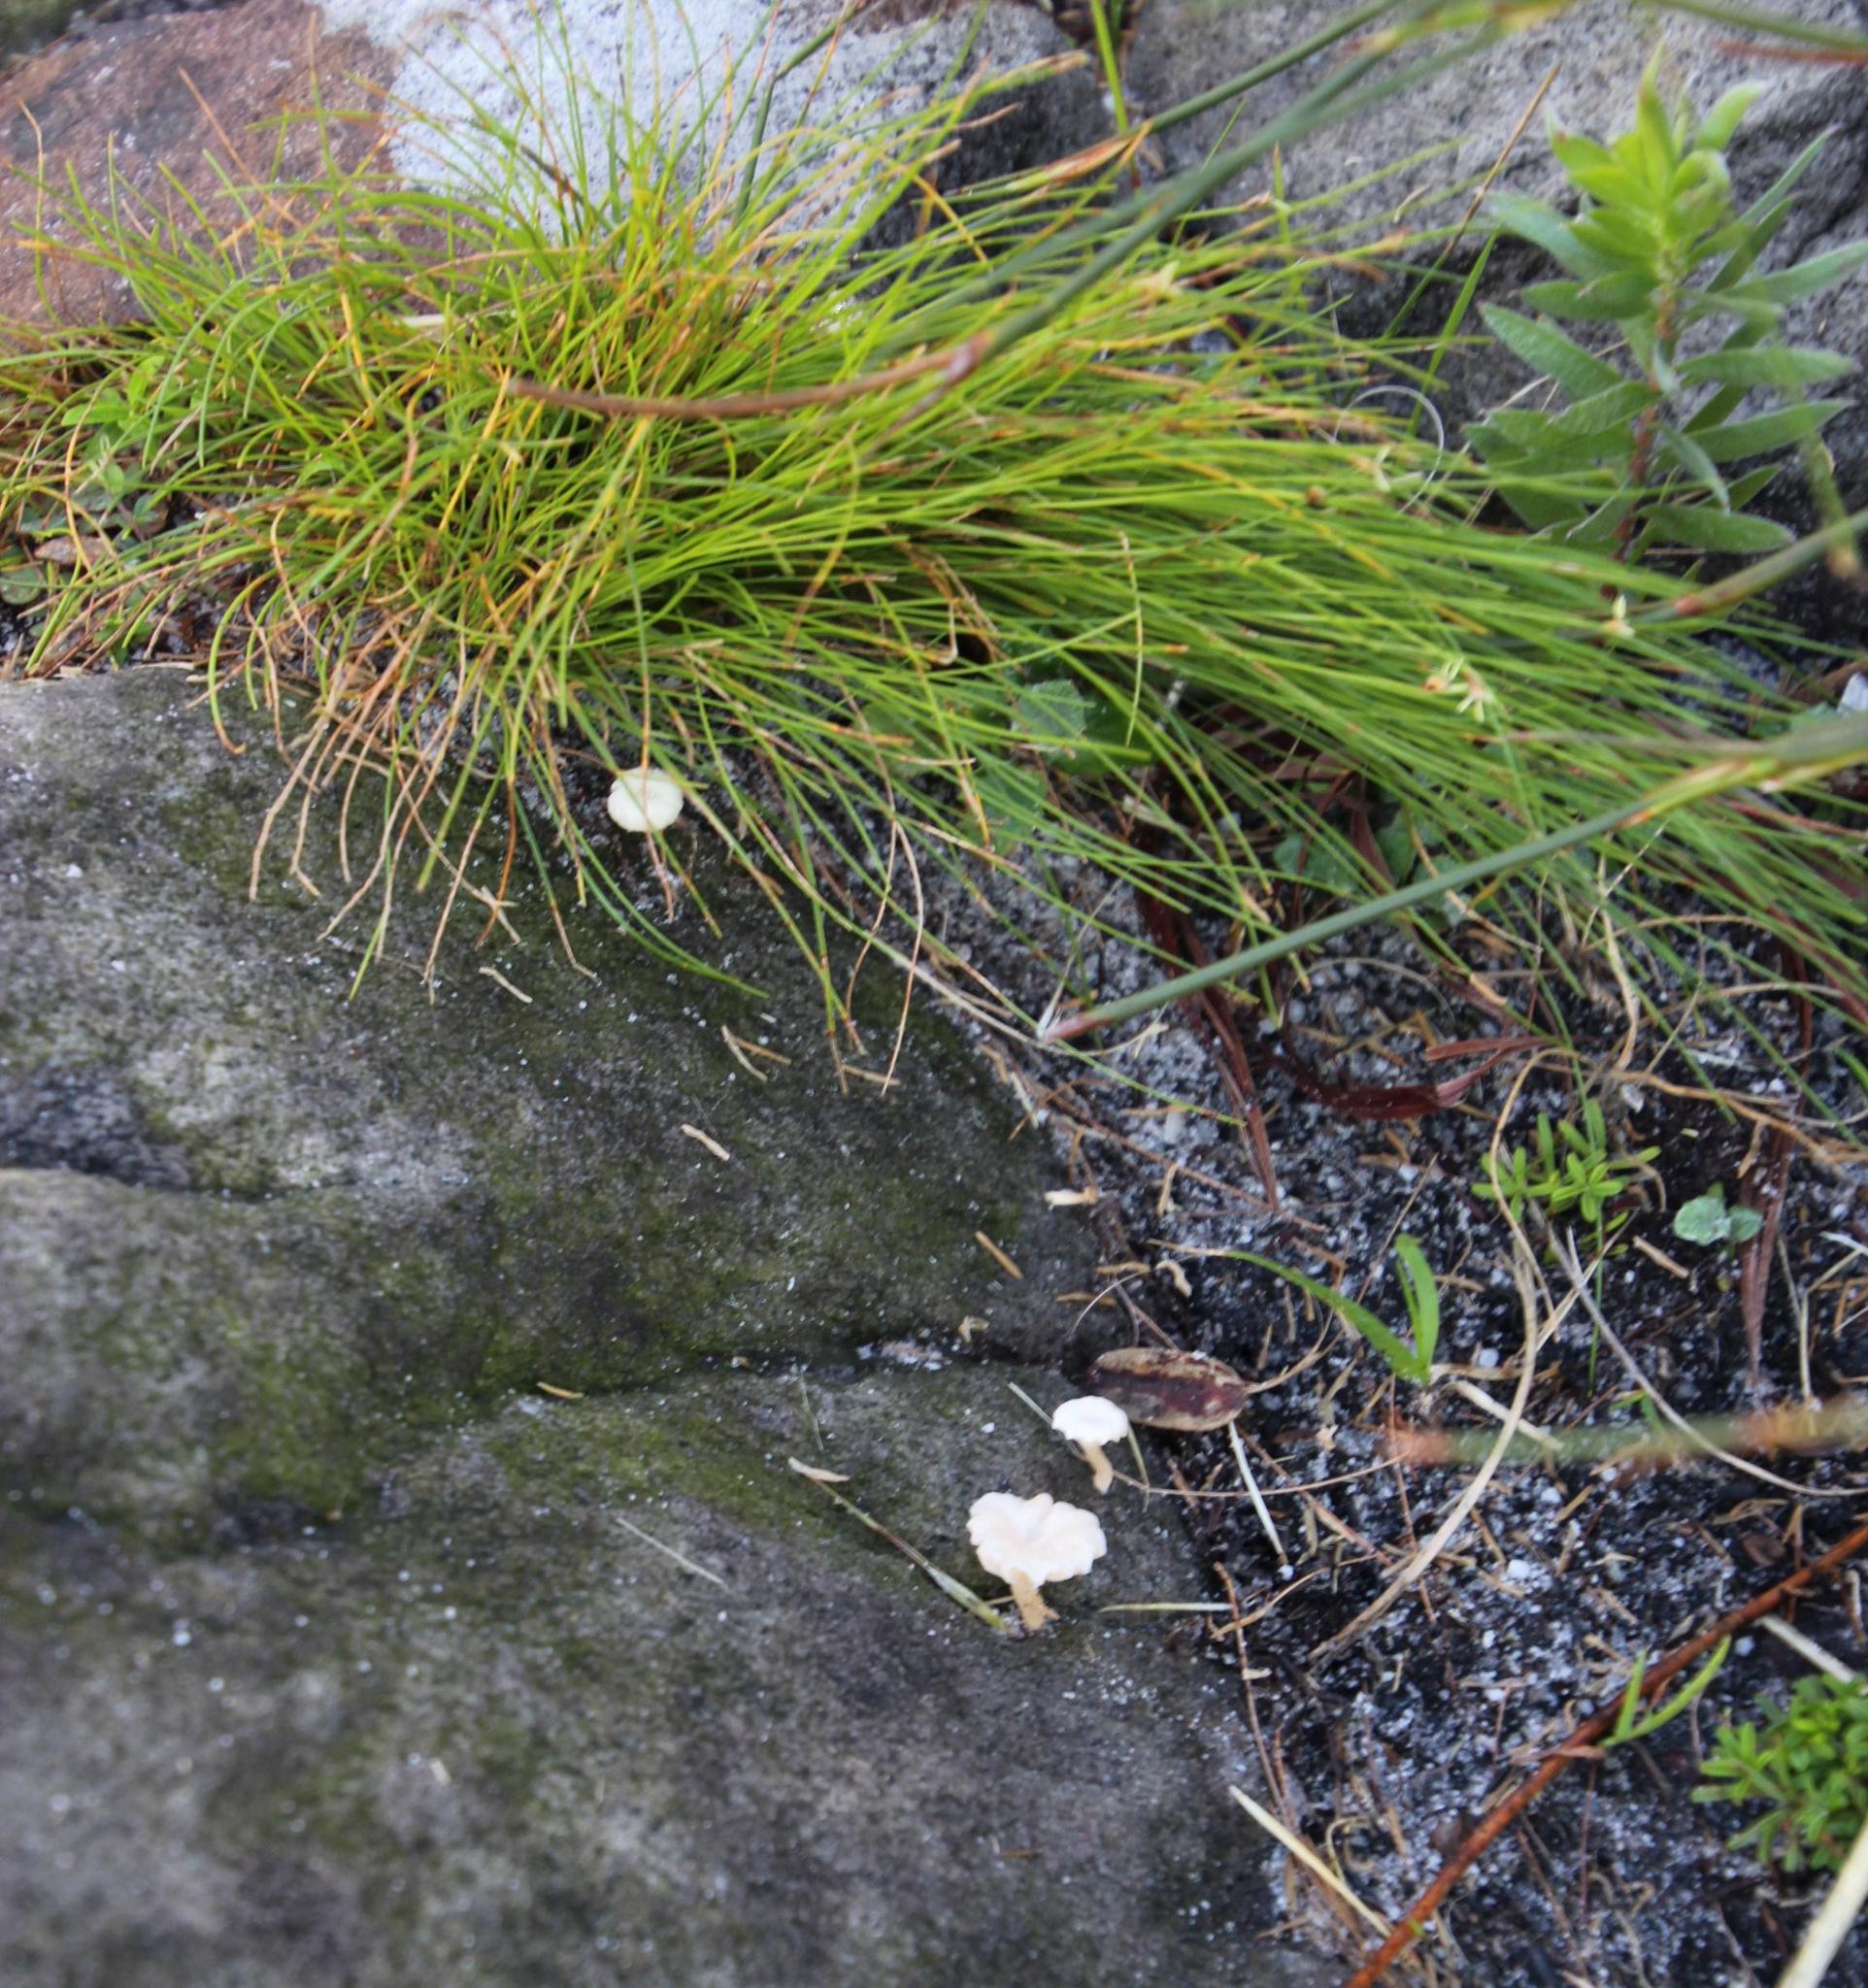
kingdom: Fungi
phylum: Basidiomycota
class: Agaricomycetes
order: Agaricales
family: Hygrophoraceae
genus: Lichenomphalia
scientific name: Lichenomphalia
